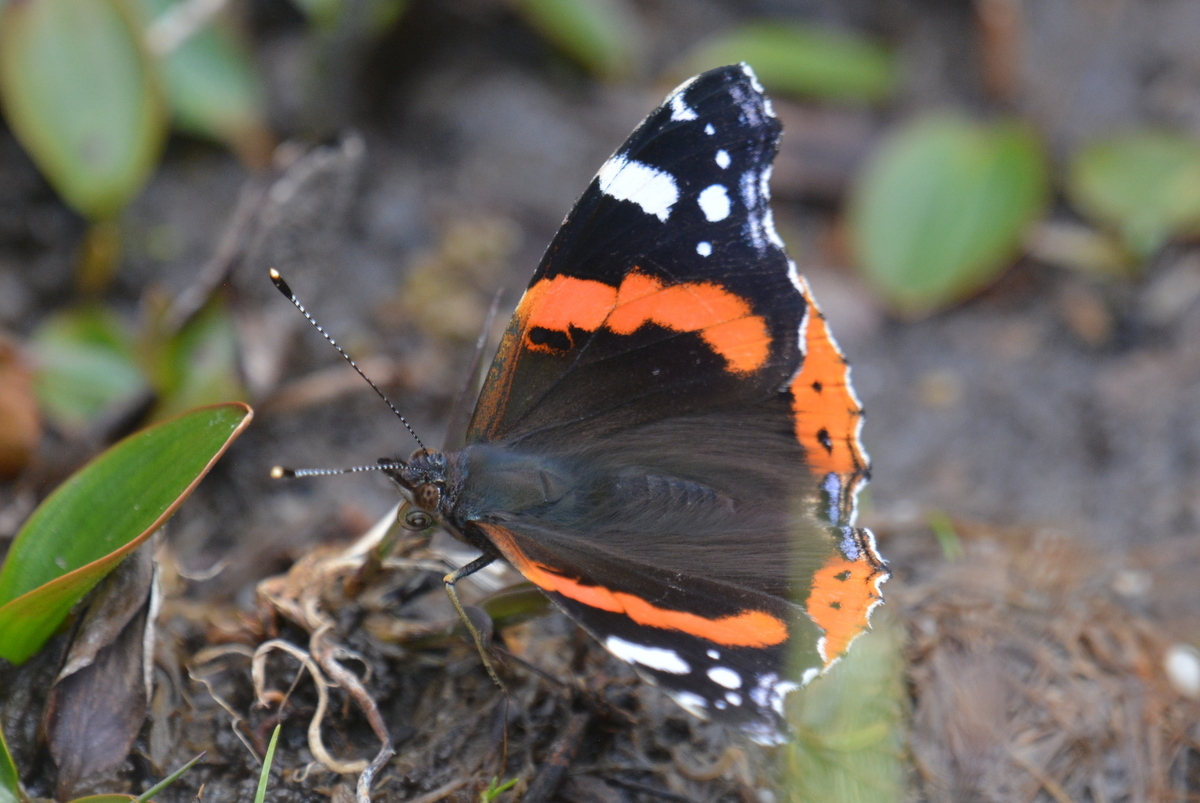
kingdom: Animalia
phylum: Arthropoda
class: Insecta
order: Lepidoptera
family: Nymphalidae
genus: Vanessa
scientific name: Vanessa atalanta
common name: Red admiral
